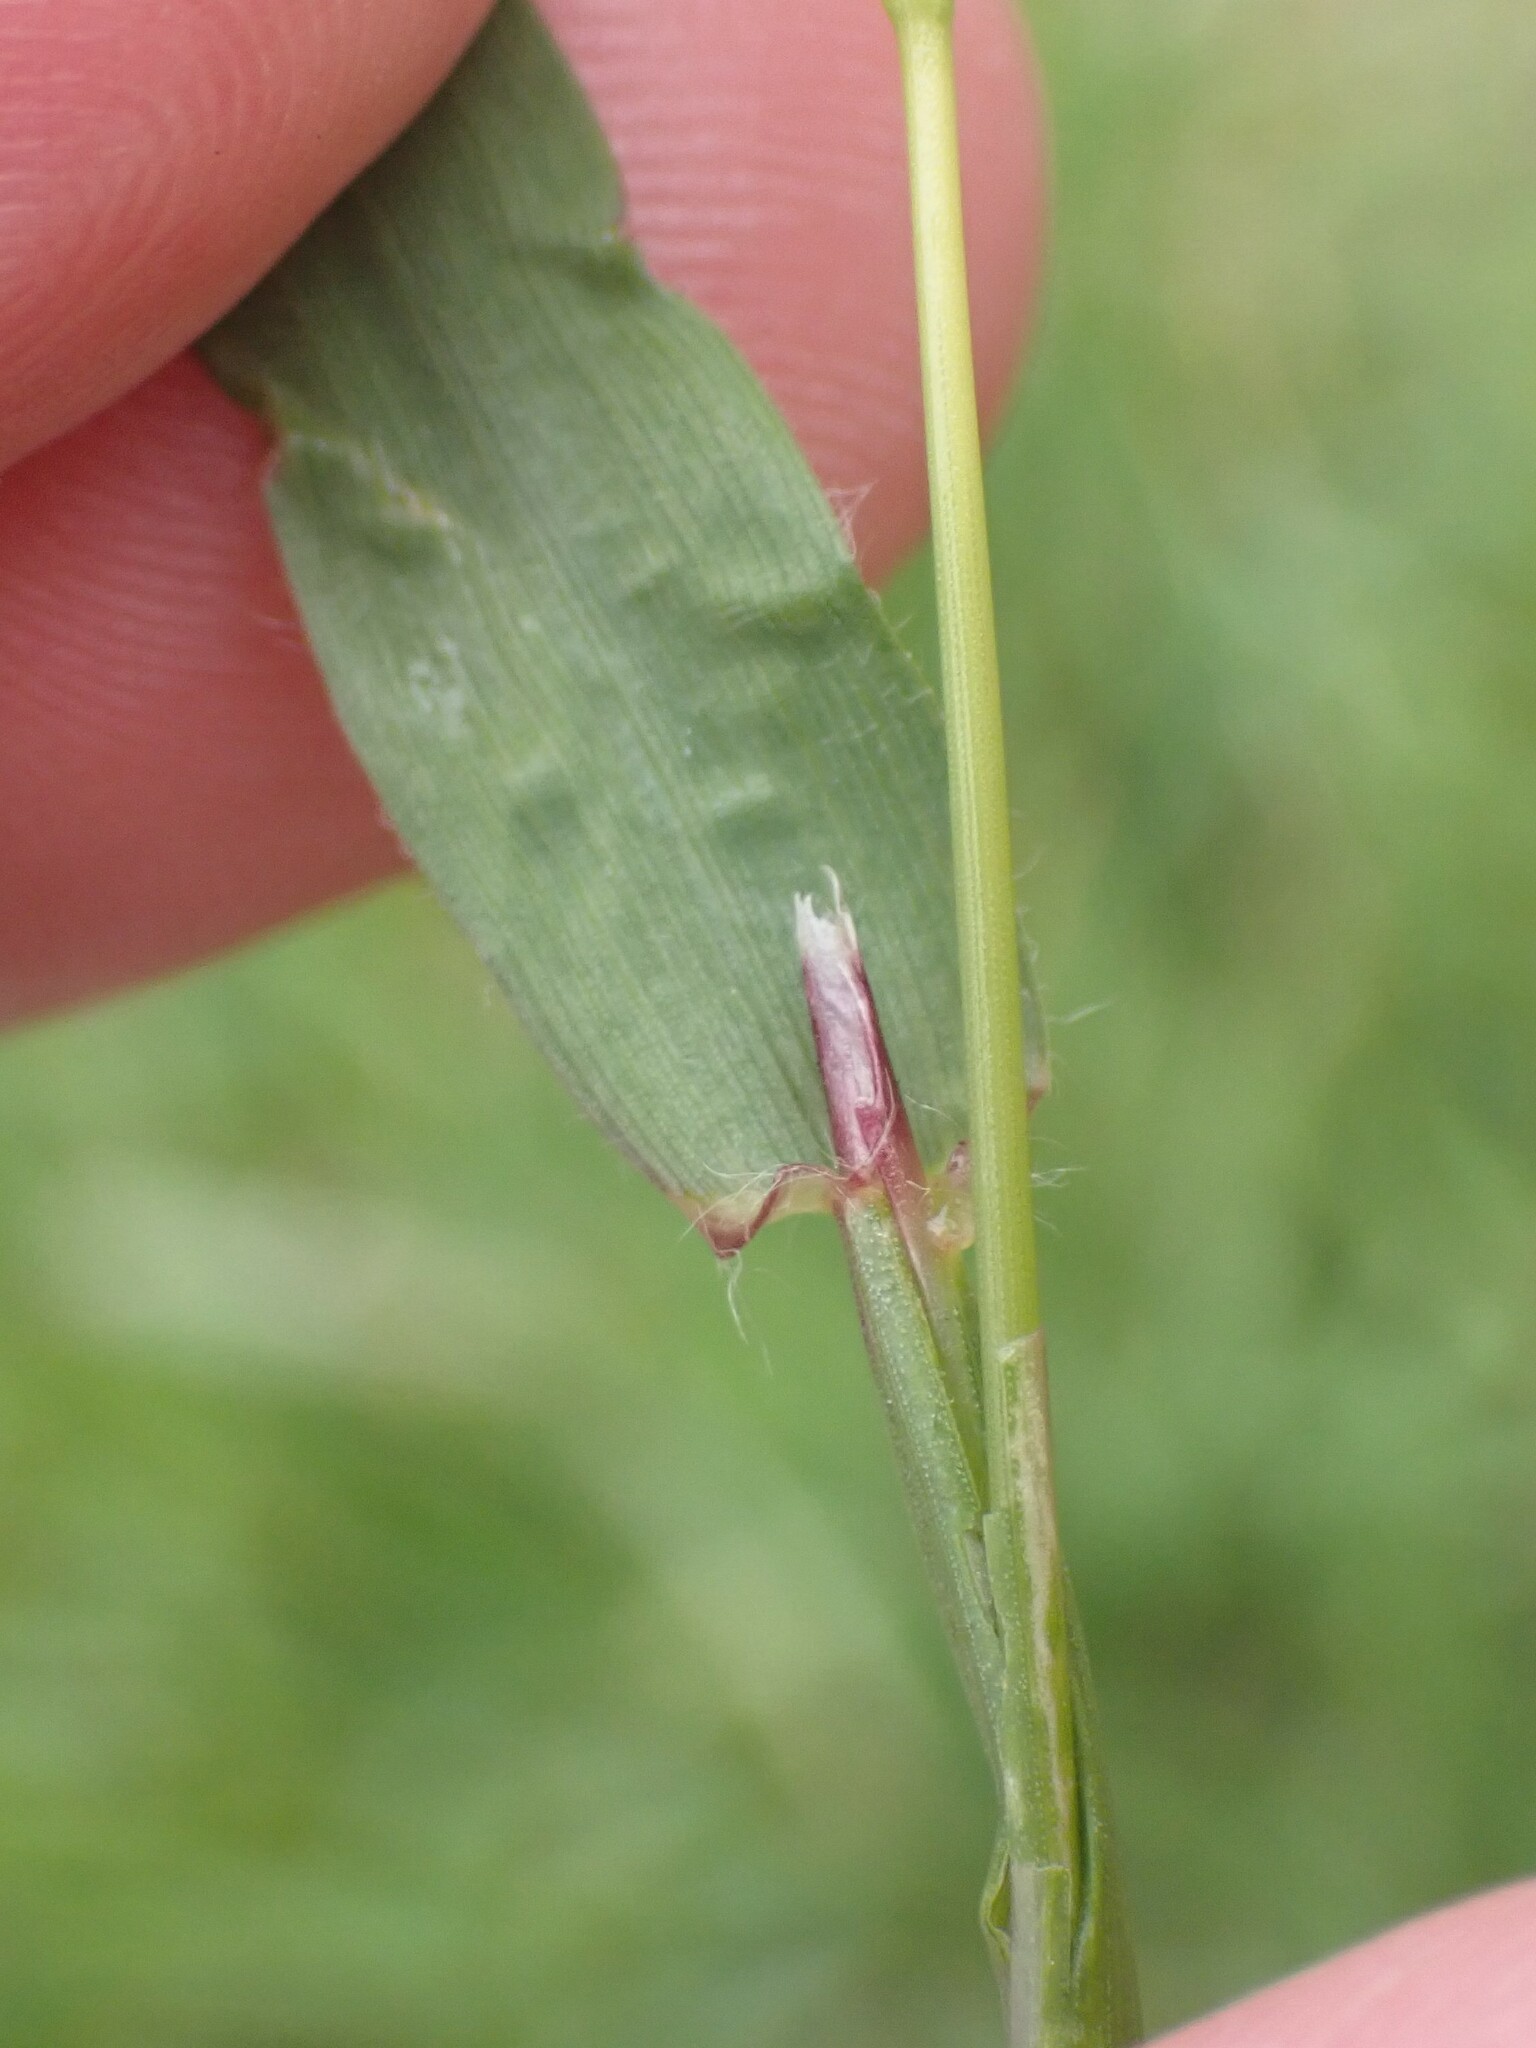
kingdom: Plantae
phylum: Tracheophyta
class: Liliopsida
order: Poales
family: Poaceae
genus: Anthoxanthum
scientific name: Anthoxanthum odoratum
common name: Sweet vernalgrass
